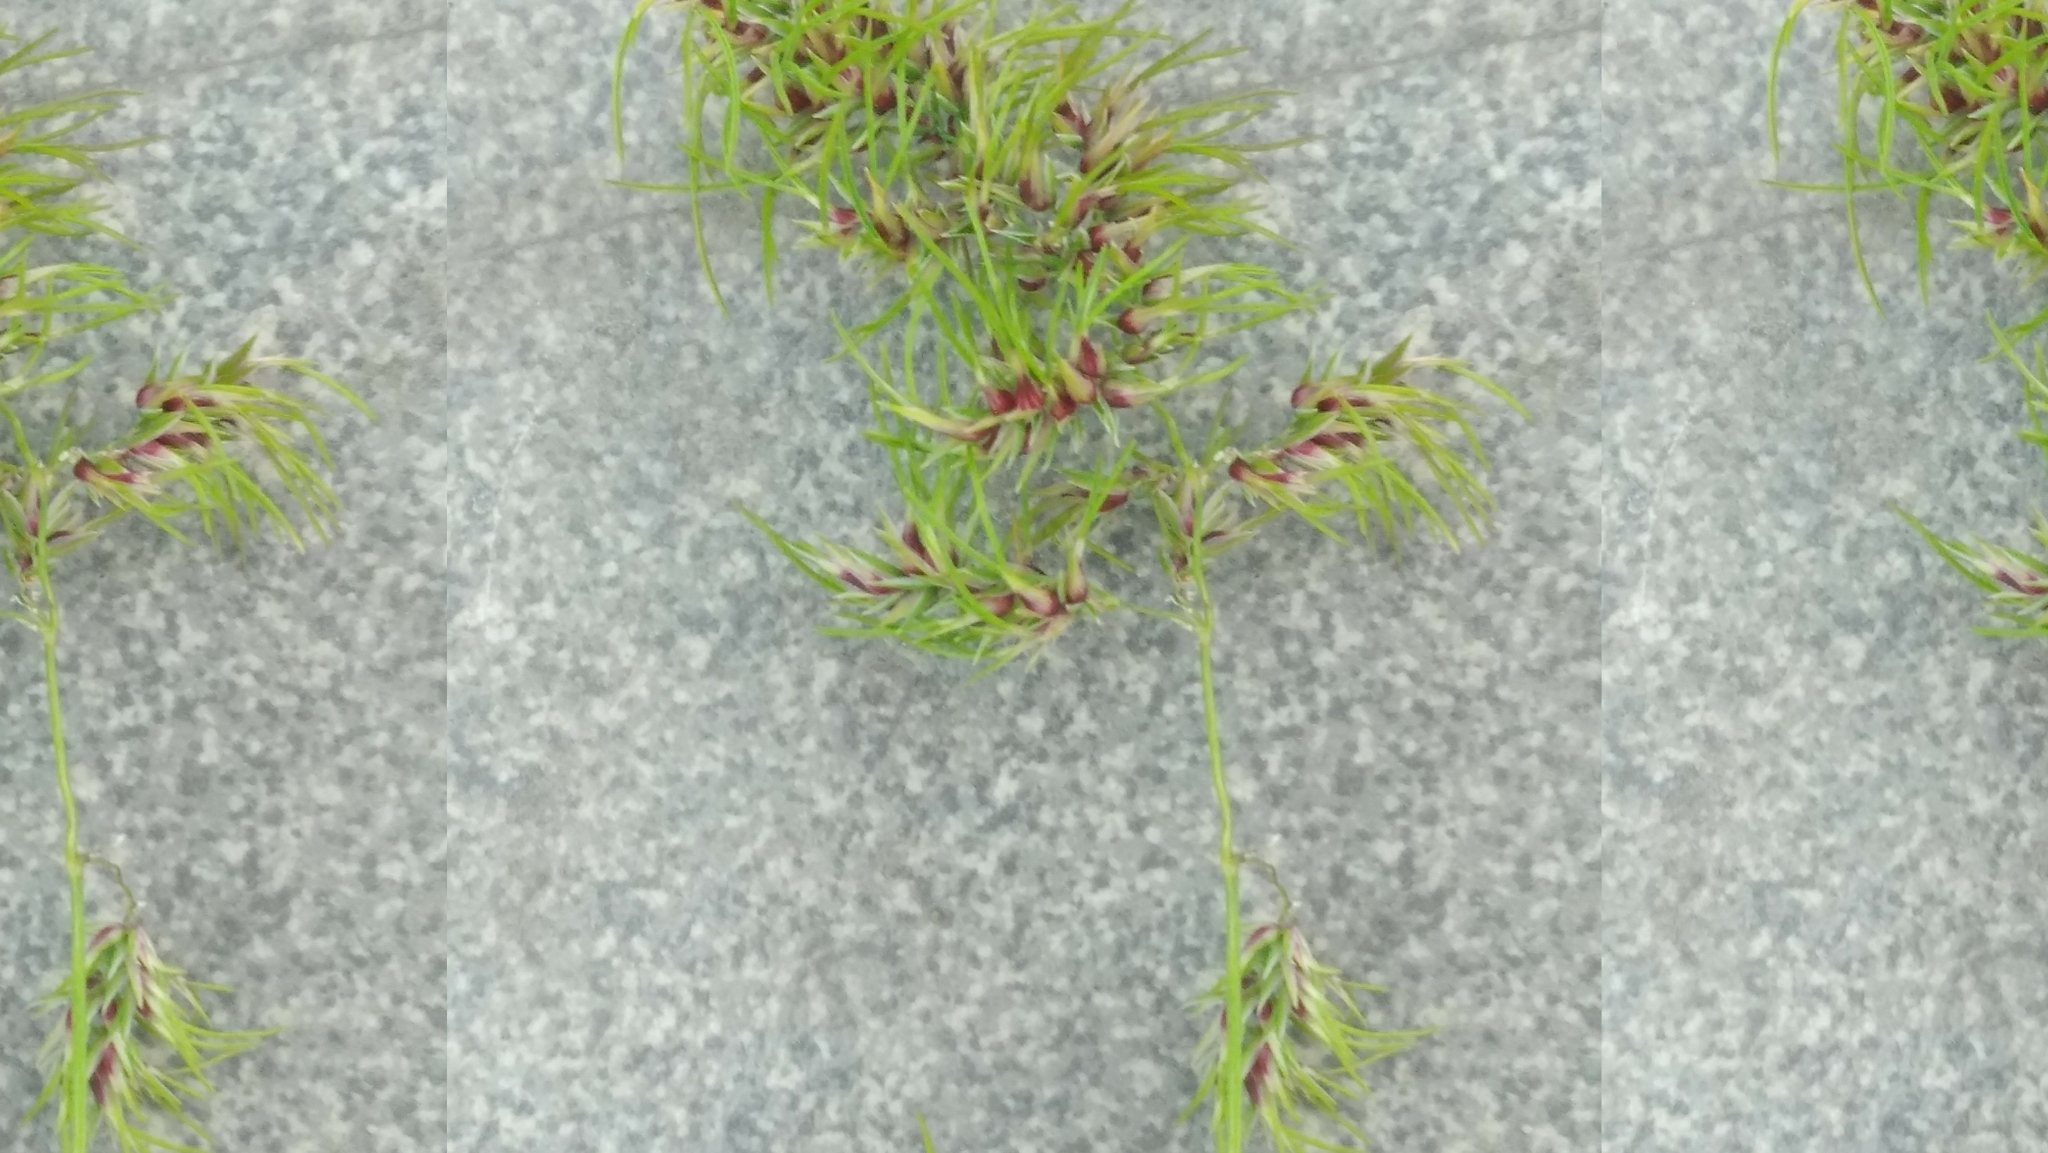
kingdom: Plantae
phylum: Tracheophyta
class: Liliopsida
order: Poales
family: Poaceae
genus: Poa
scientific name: Poa bulbosa
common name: Bulbous bluegrass
